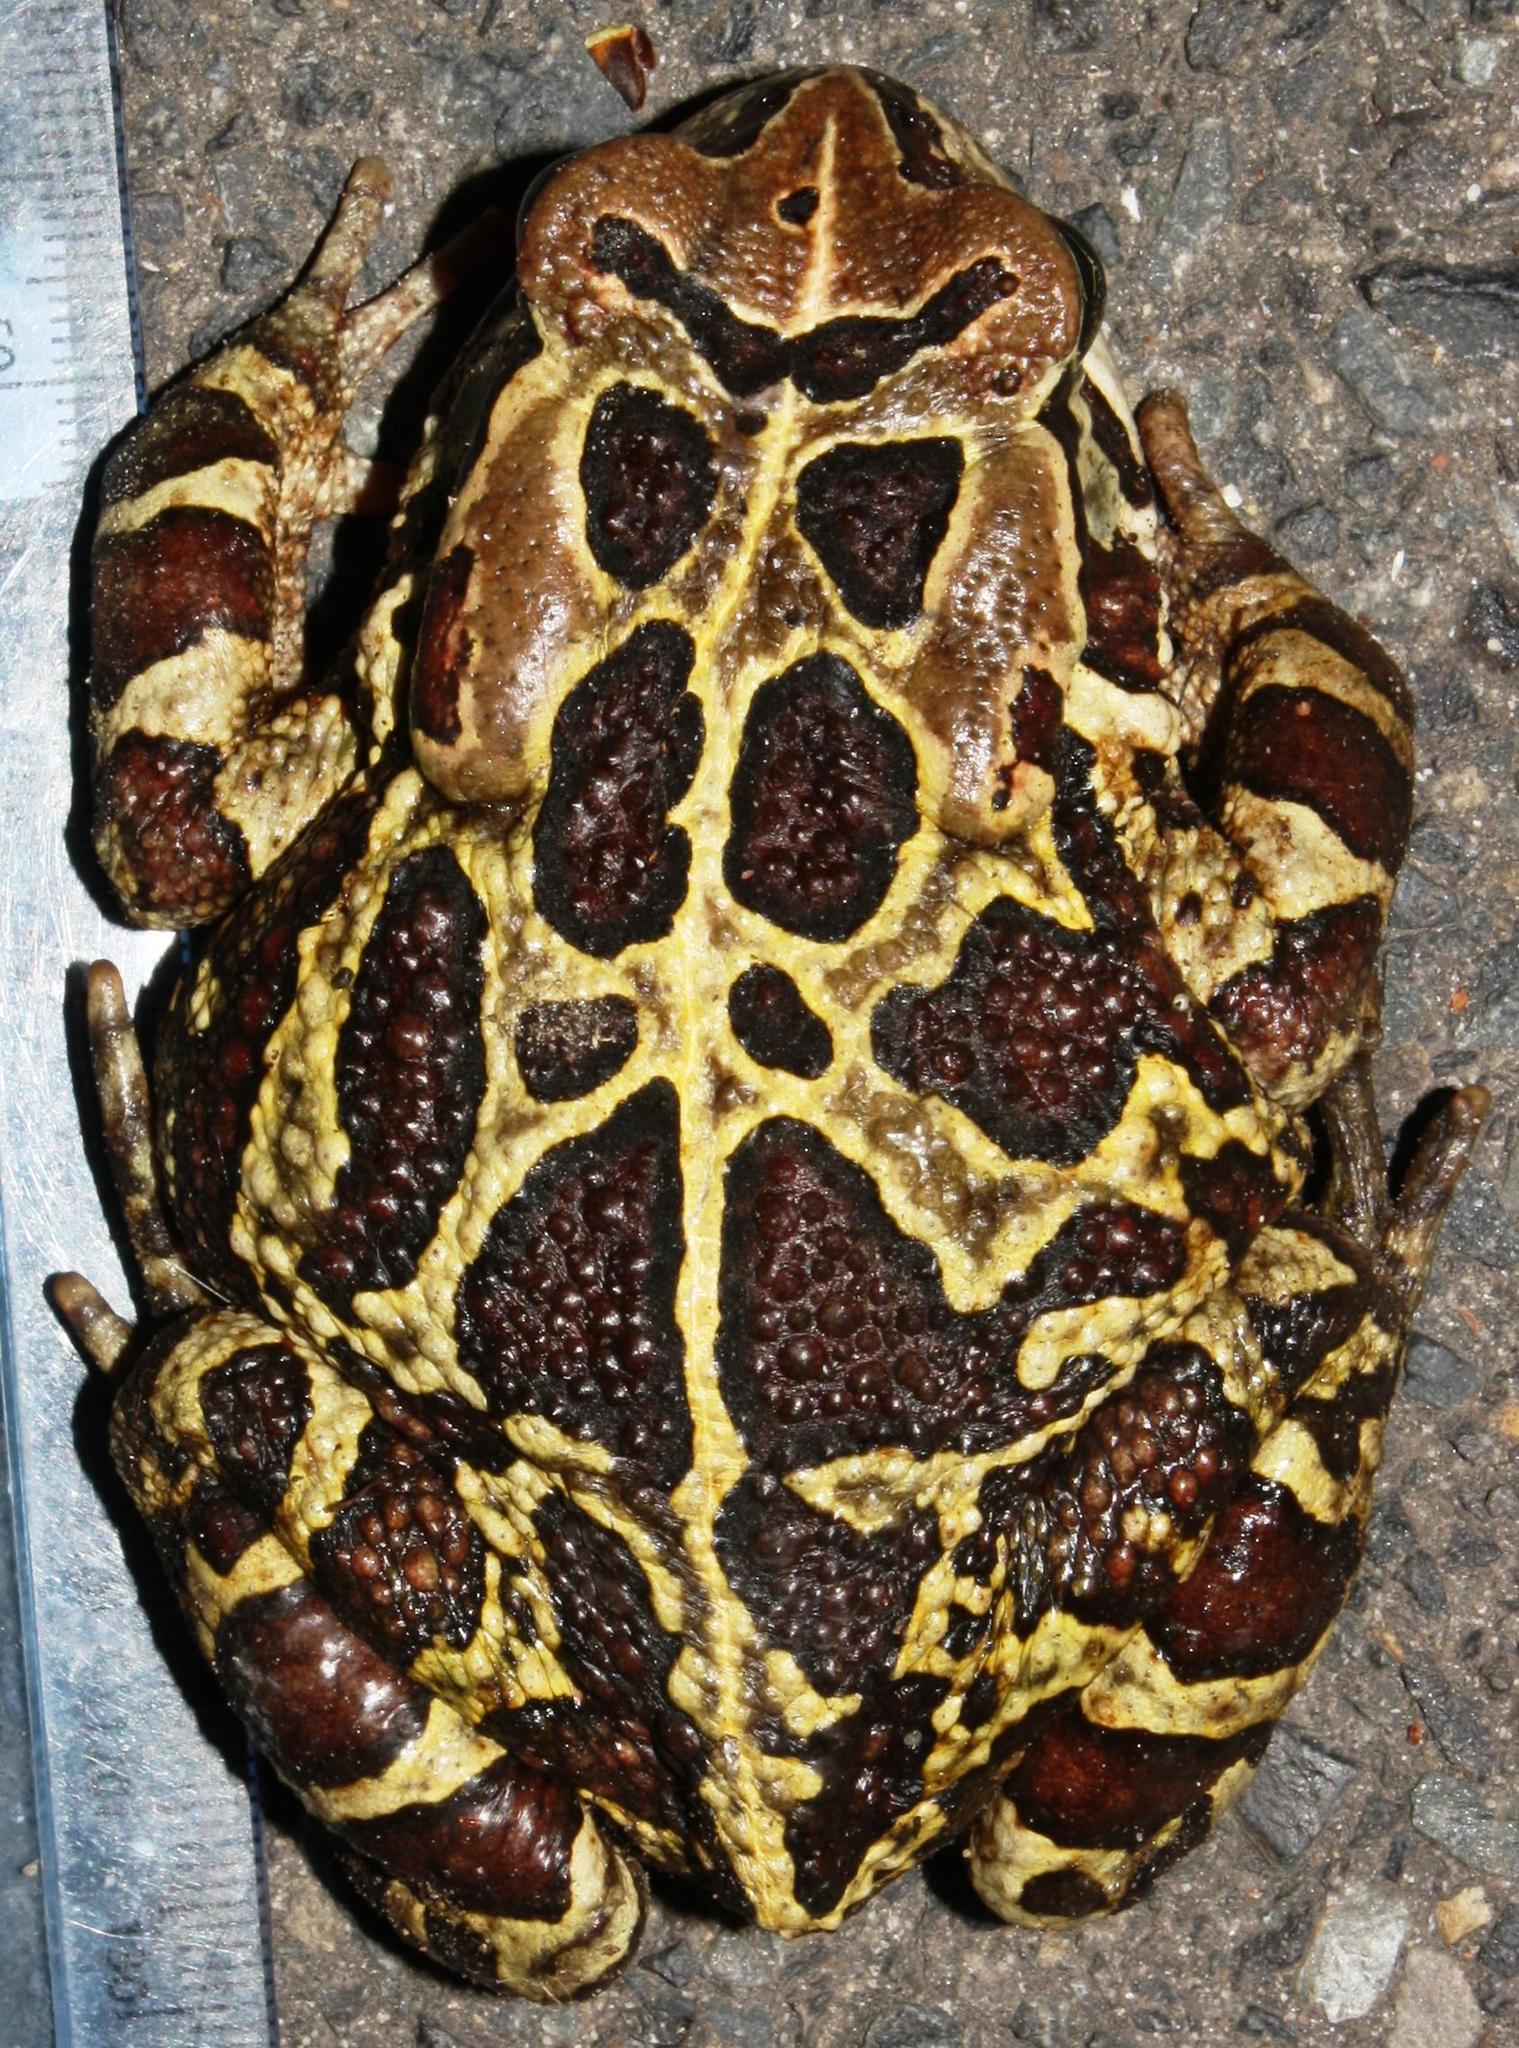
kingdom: Animalia
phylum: Chordata
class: Amphibia
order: Anura
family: Bufonidae
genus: Sclerophrys
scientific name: Sclerophrys pantherina
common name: Panther toad
